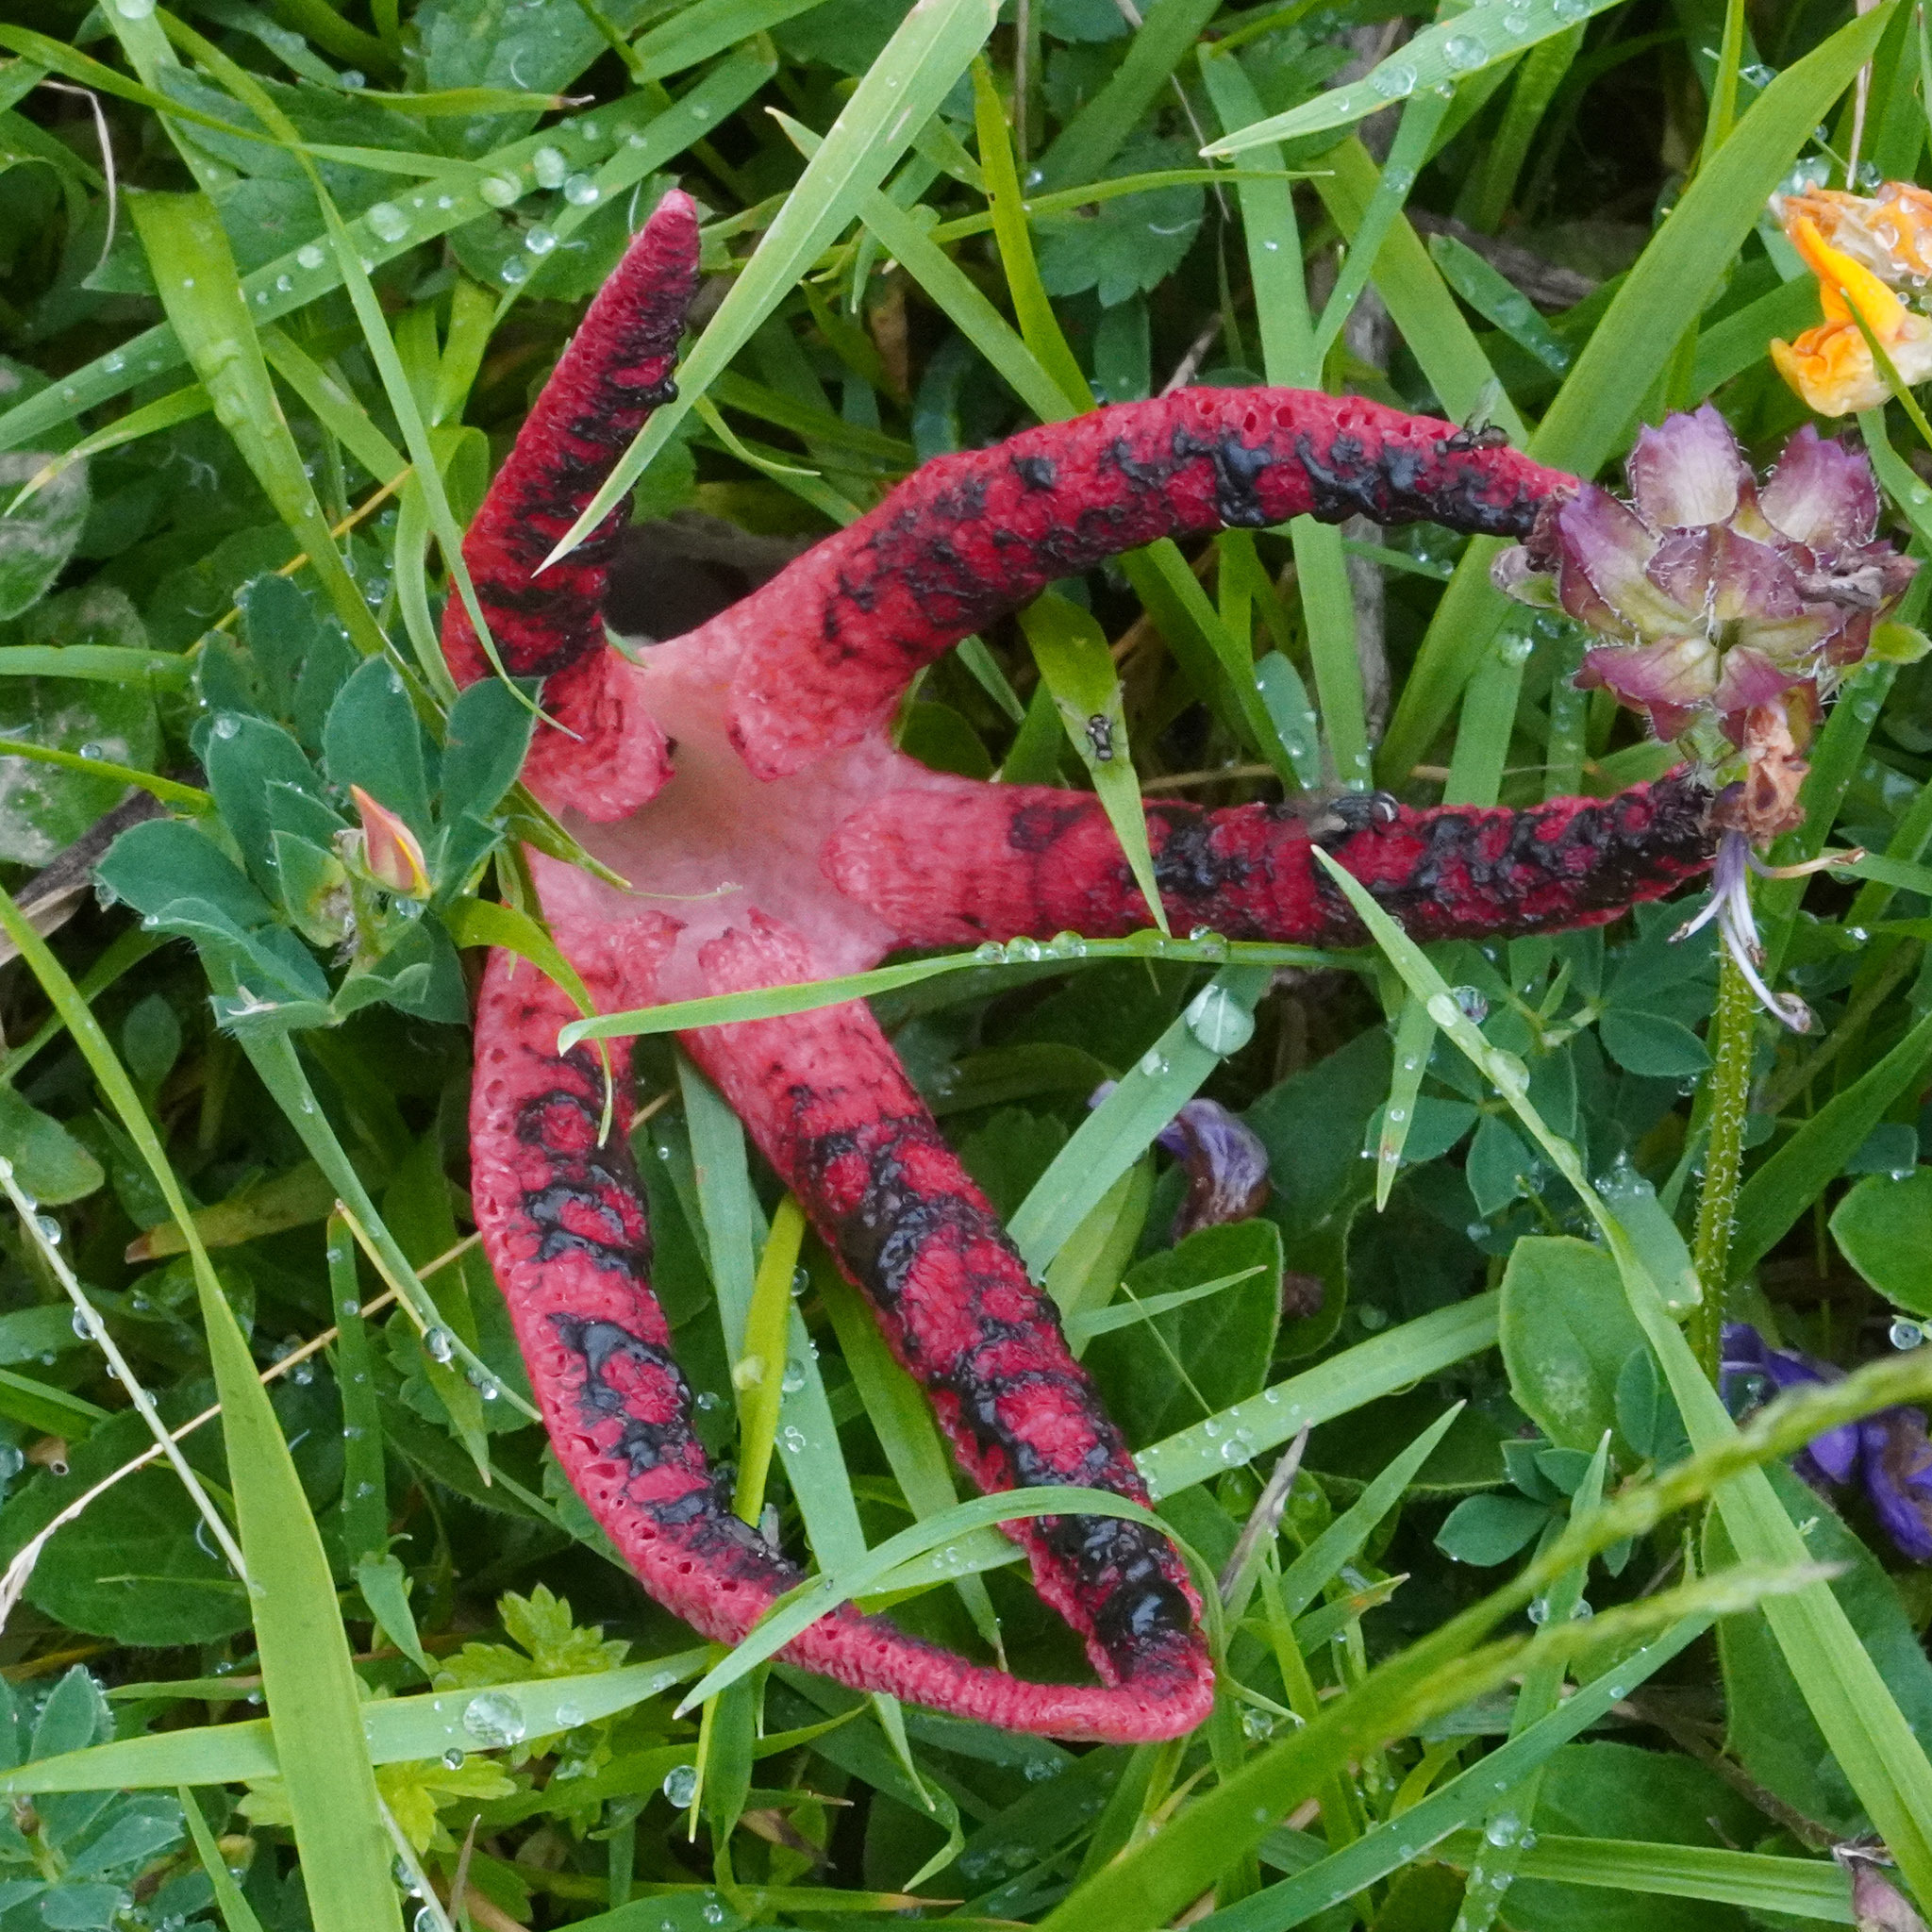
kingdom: Fungi
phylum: Basidiomycota
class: Agaricomycetes
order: Phallales
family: Phallaceae
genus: Clathrus
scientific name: Clathrus archeri
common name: Devil's fingers
